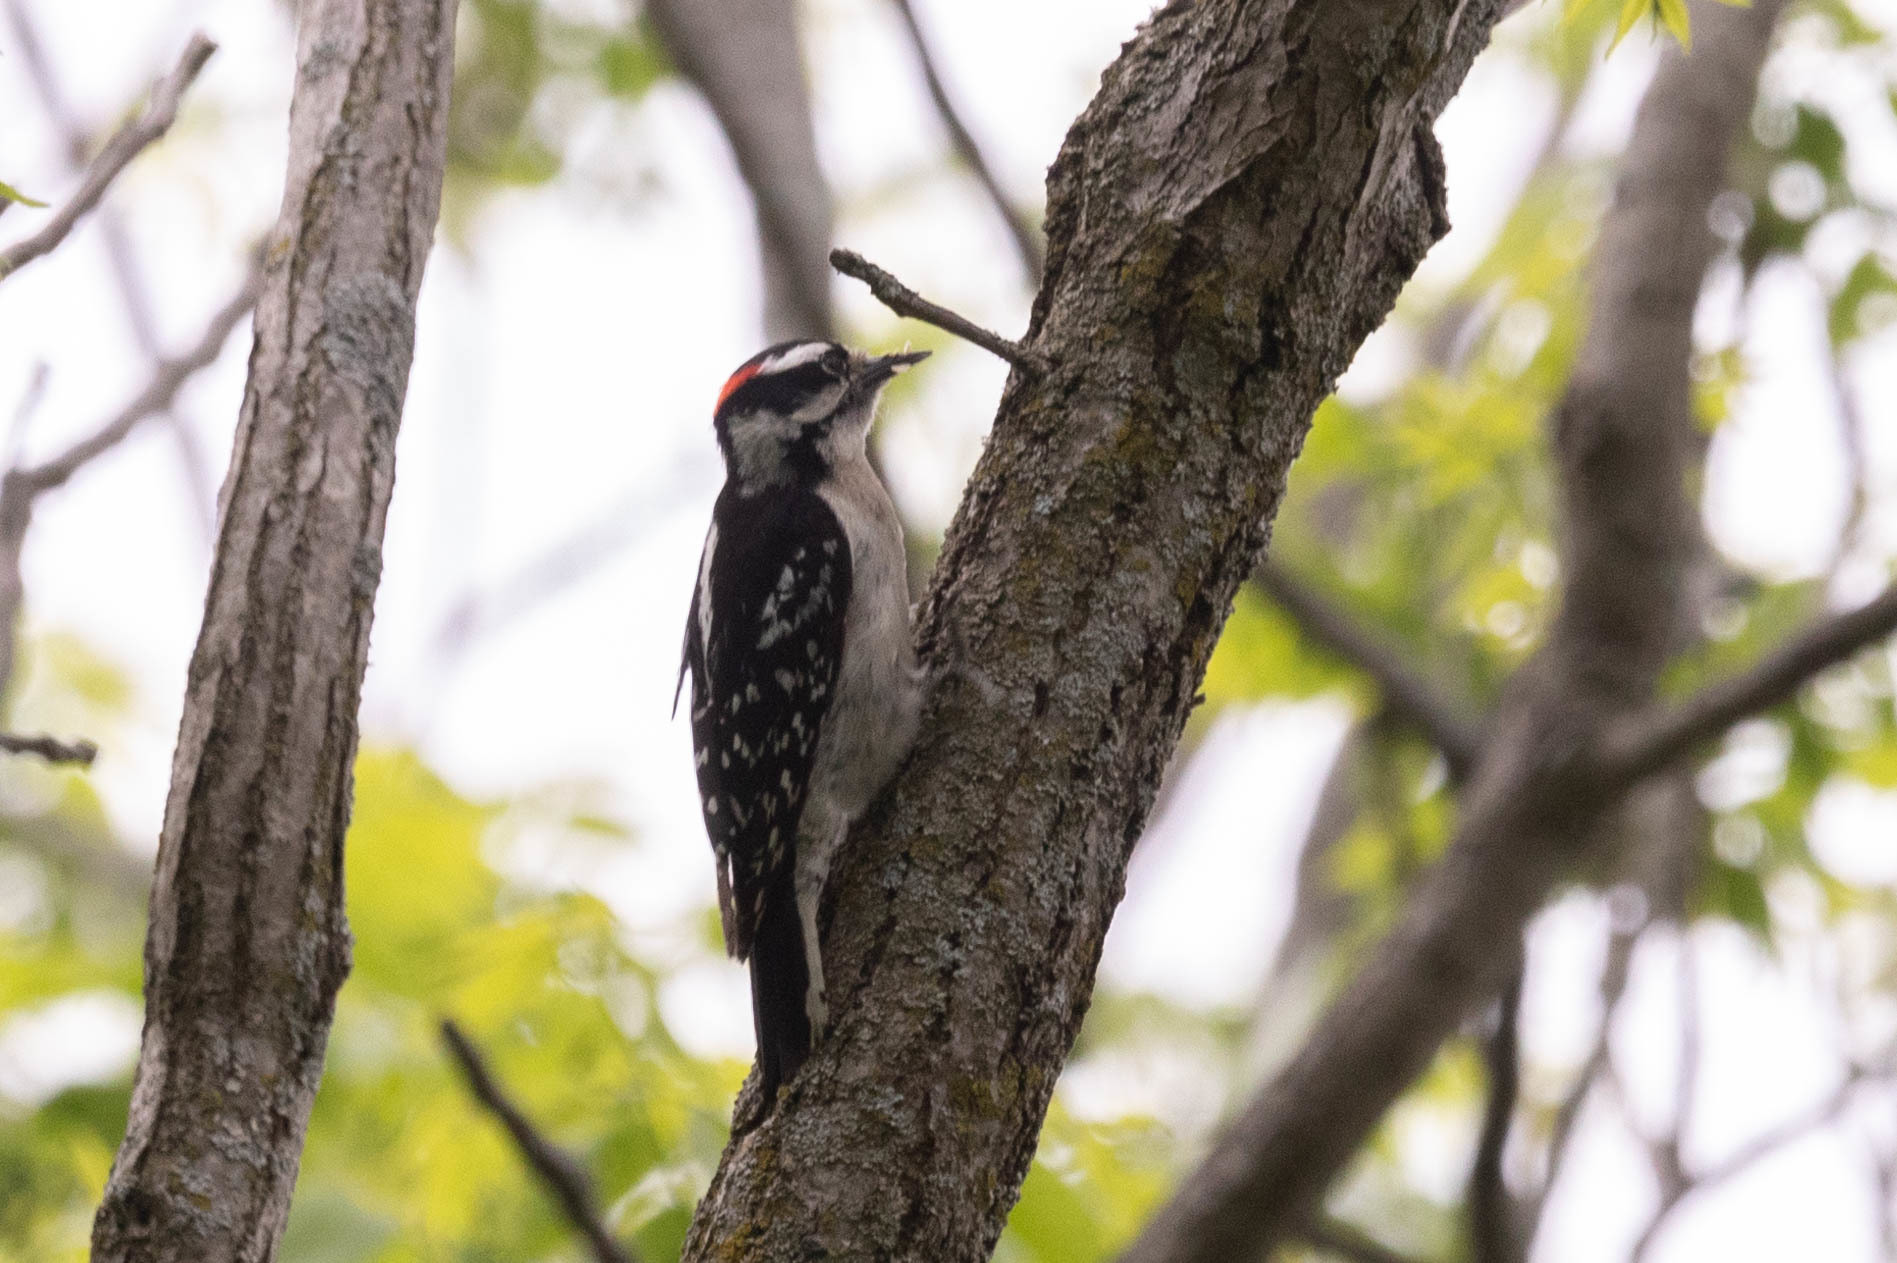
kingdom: Animalia
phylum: Chordata
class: Aves
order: Piciformes
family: Picidae
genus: Dryobates
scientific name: Dryobates pubescens
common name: Downy woodpecker
